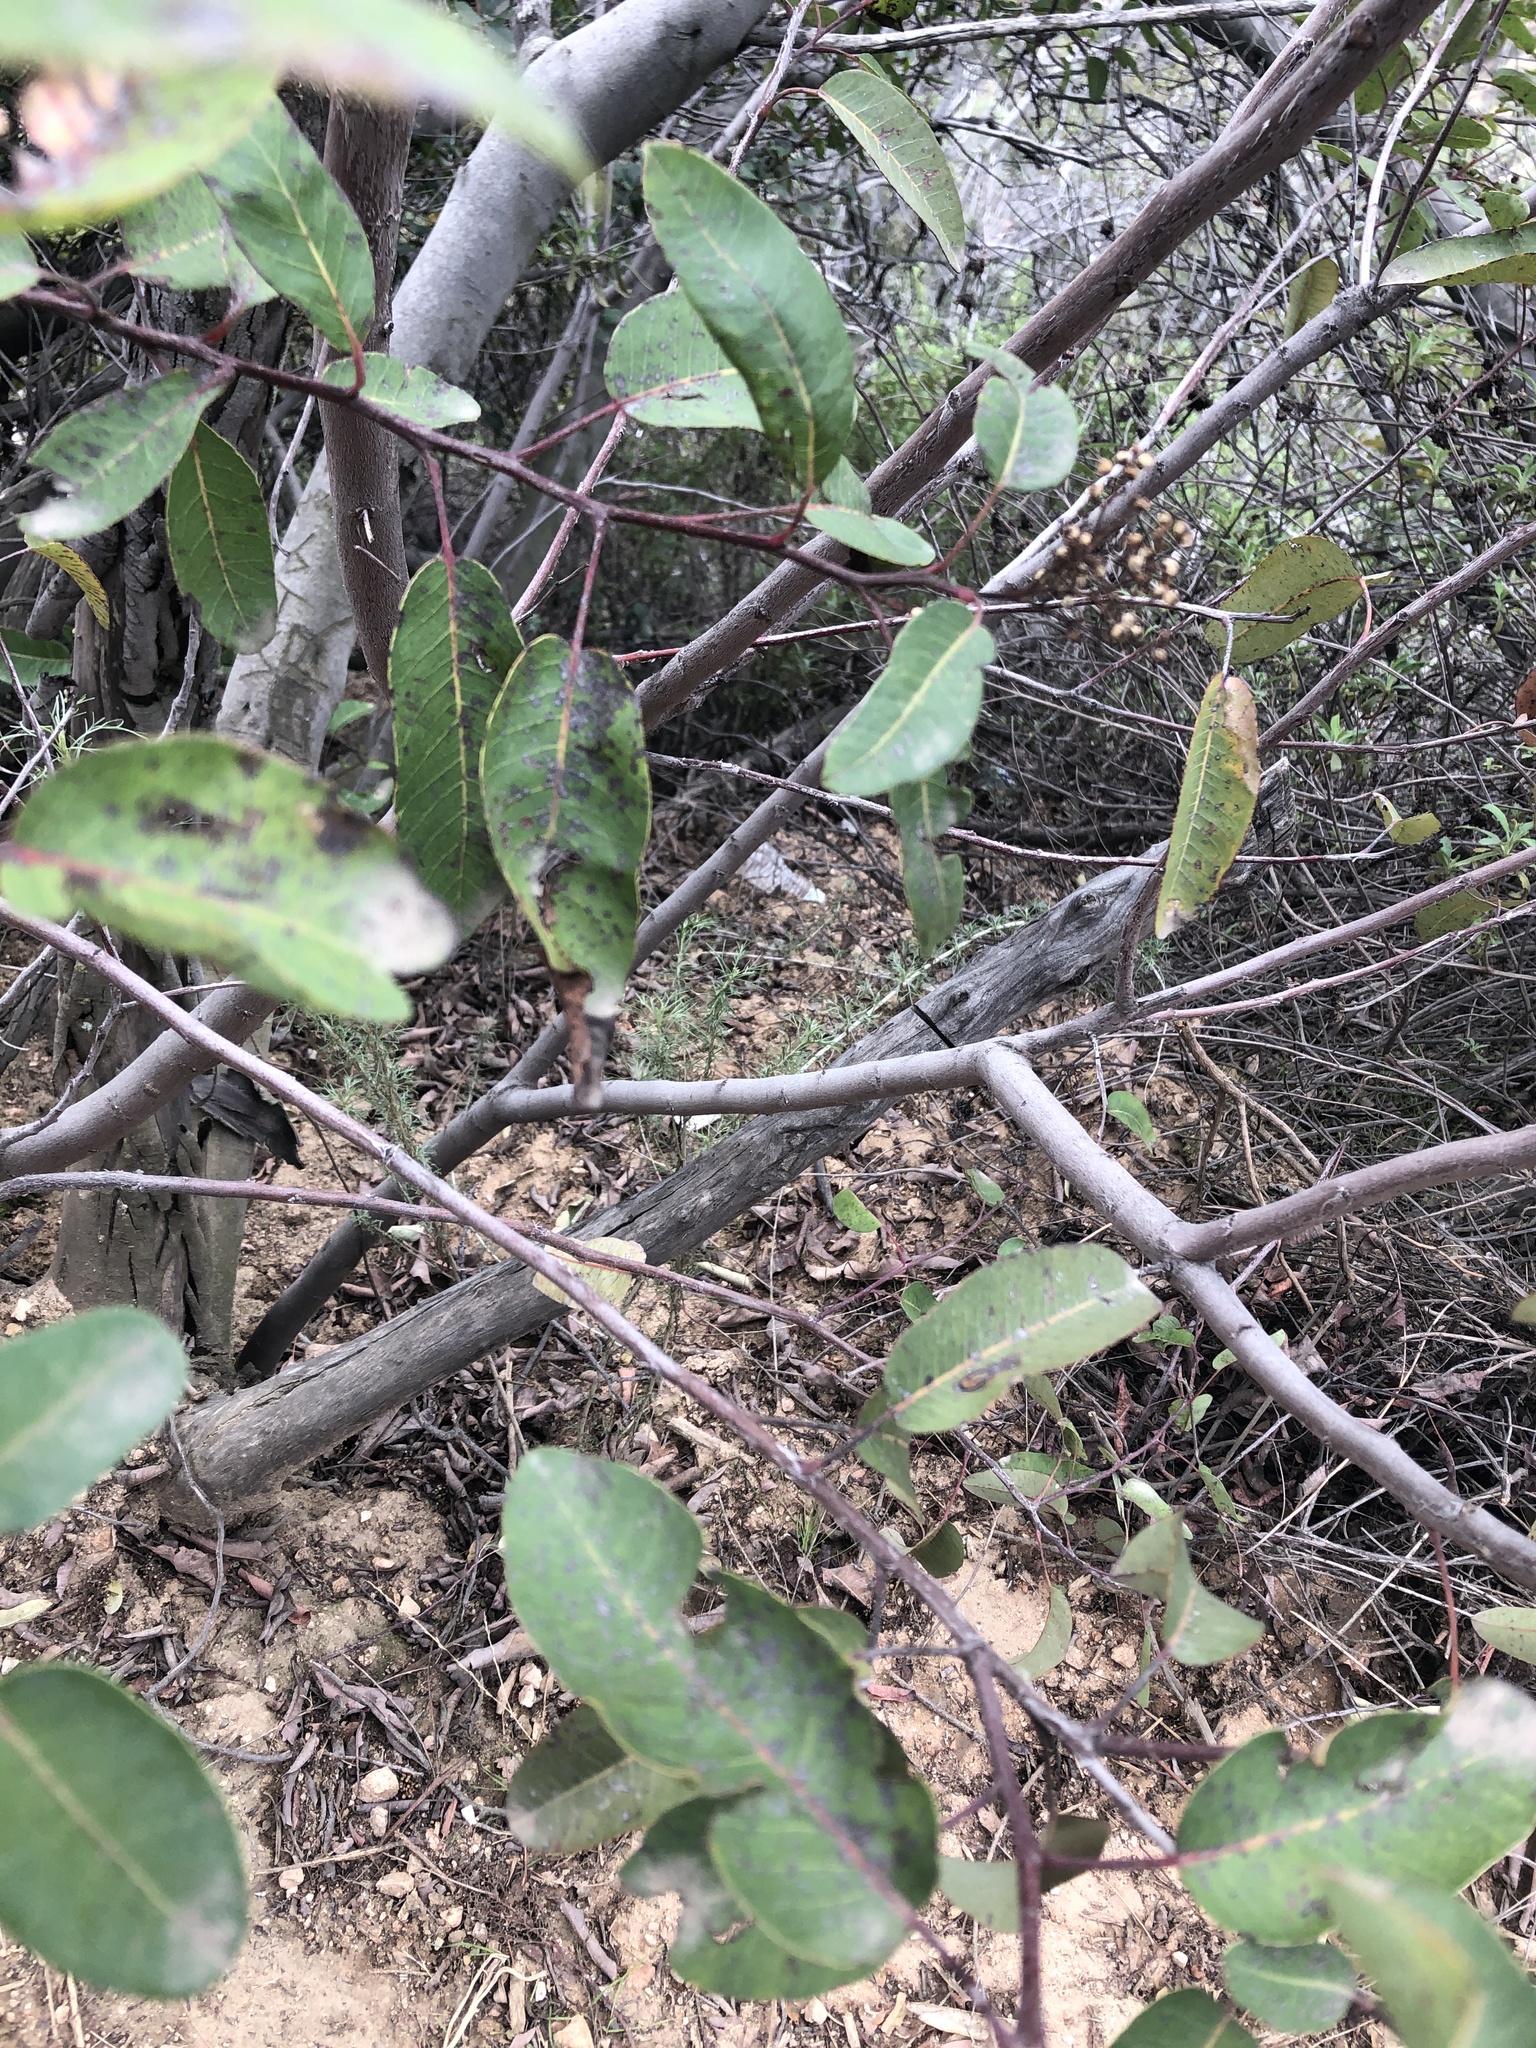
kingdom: Plantae
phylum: Tracheophyta
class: Magnoliopsida
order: Sapindales
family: Anacardiaceae
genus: Malosma
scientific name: Malosma laurina
